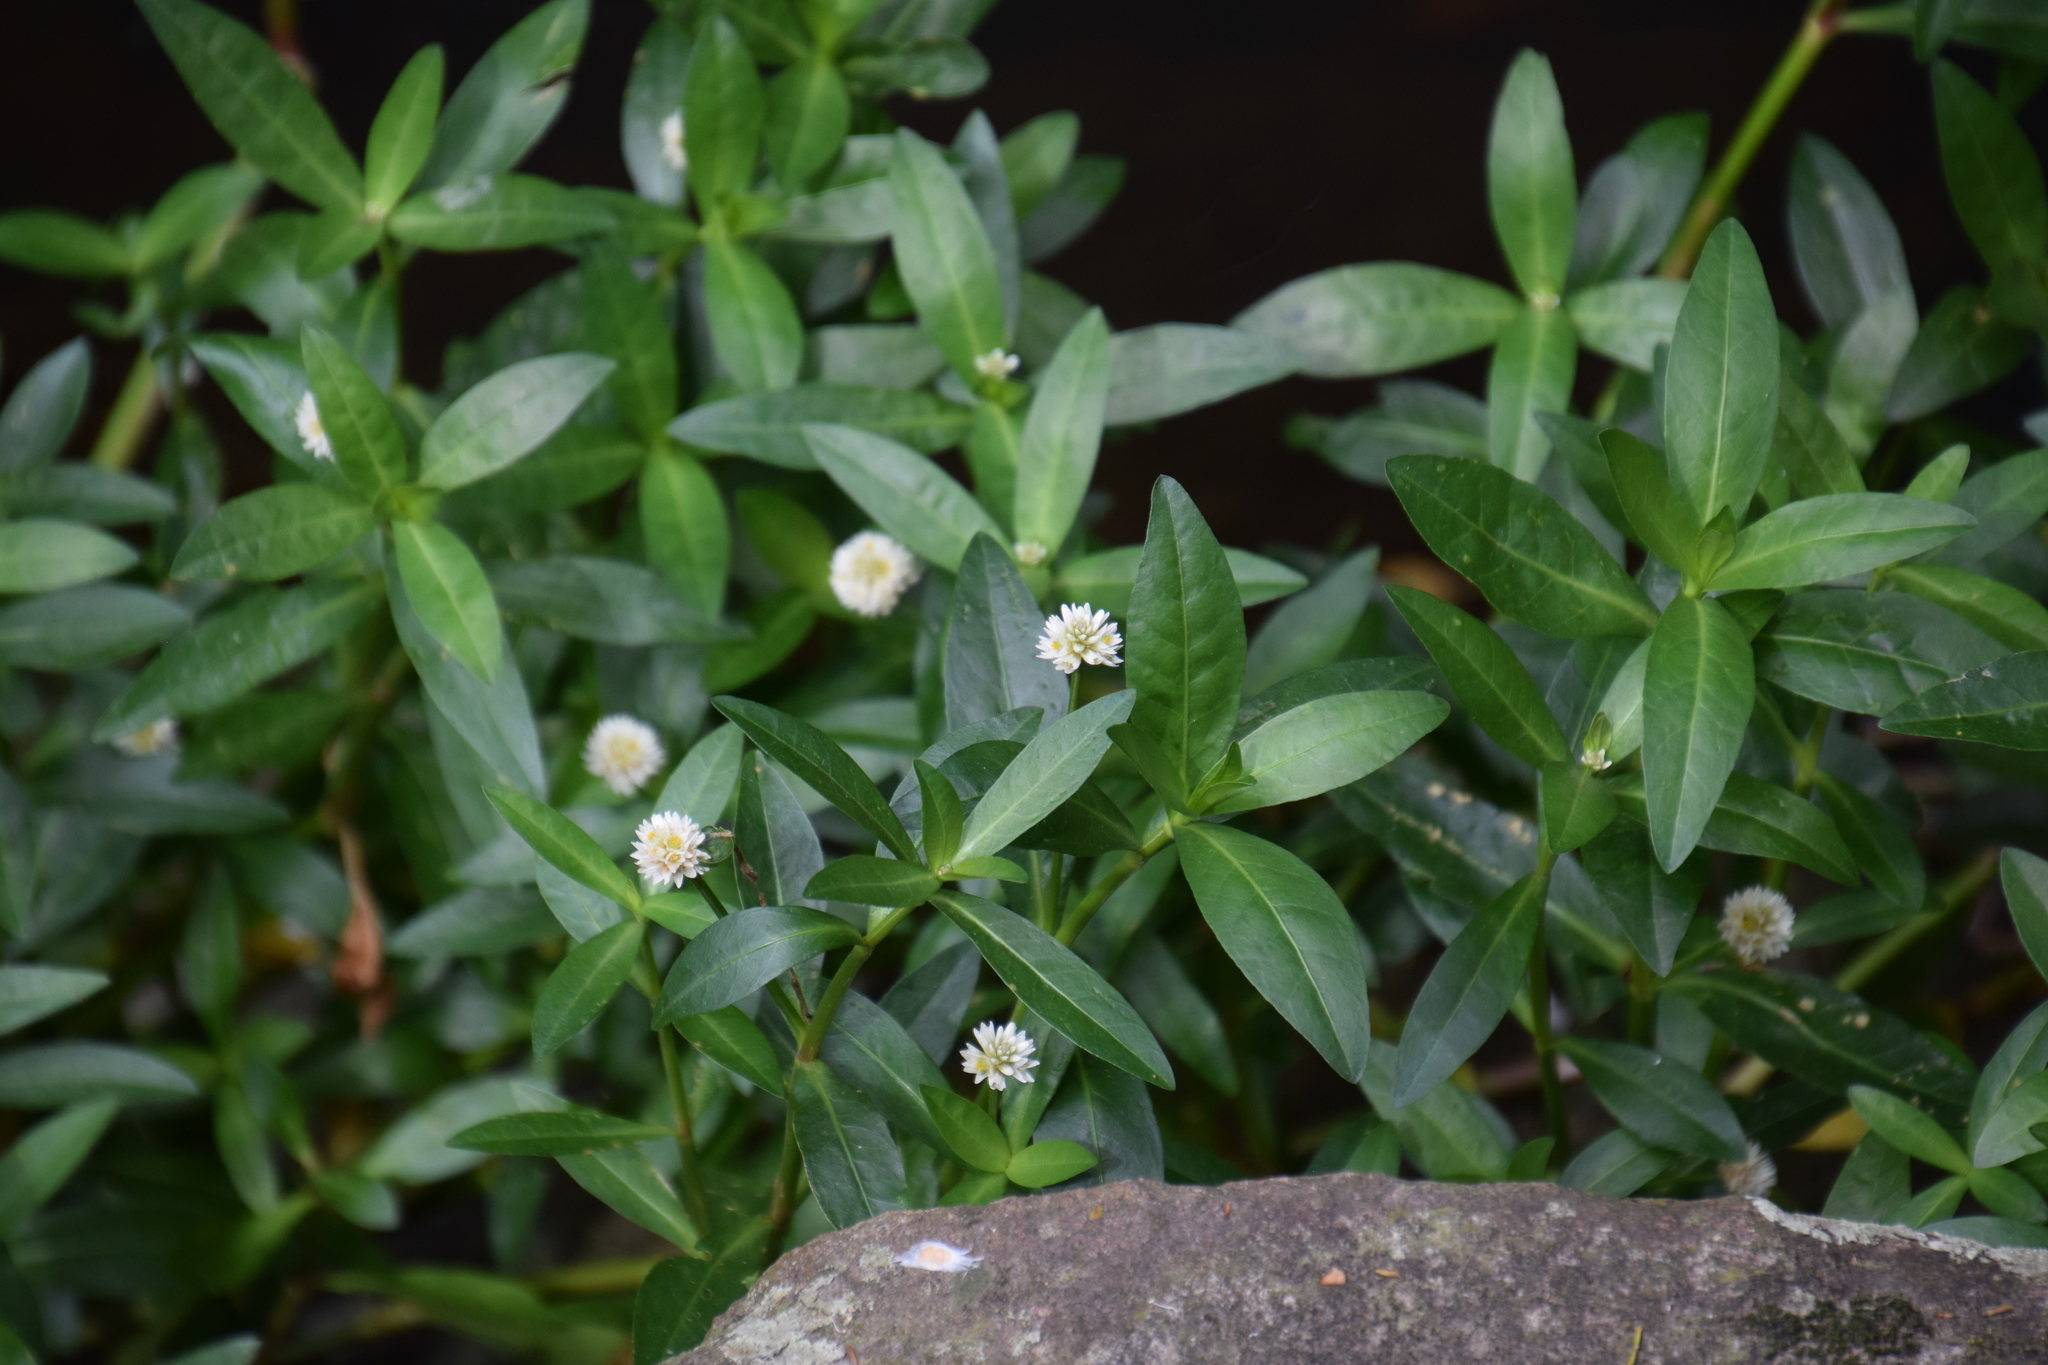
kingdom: Plantae
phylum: Tracheophyta
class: Magnoliopsida
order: Caryophyllales
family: Amaranthaceae
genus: Alternanthera
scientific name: Alternanthera philoxeroides
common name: Alligatorweed
